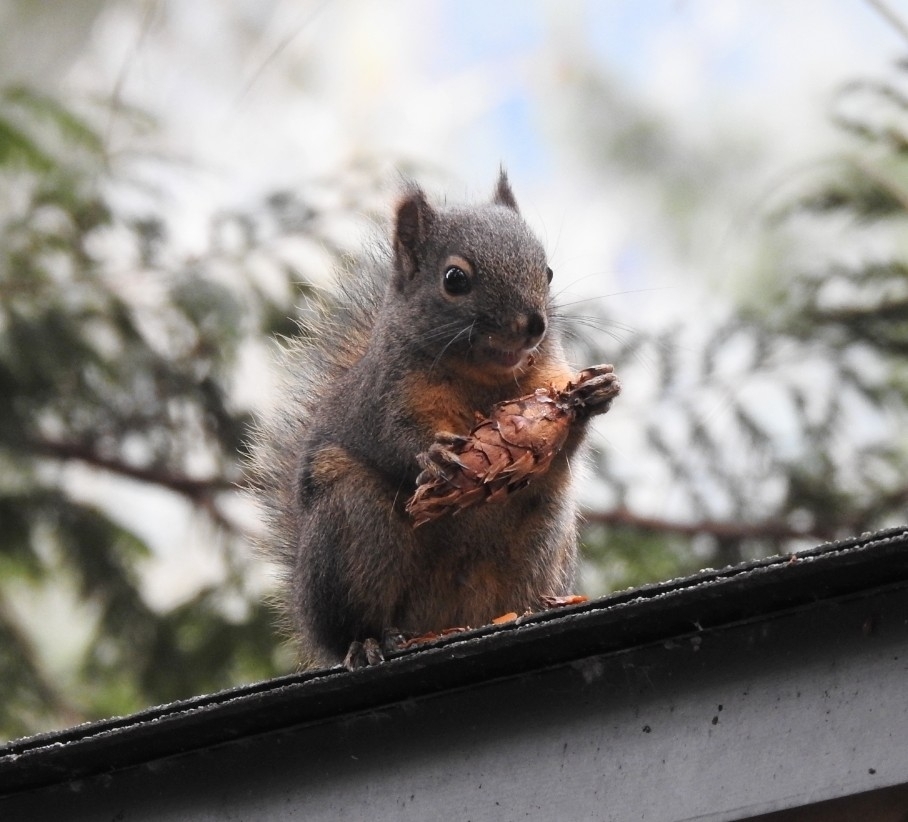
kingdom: Animalia
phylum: Chordata
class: Mammalia
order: Rodentia
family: Sciuridae
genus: Tamiasciurus
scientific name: Tamiasciurus douglasii
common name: Douglas's squirrel
